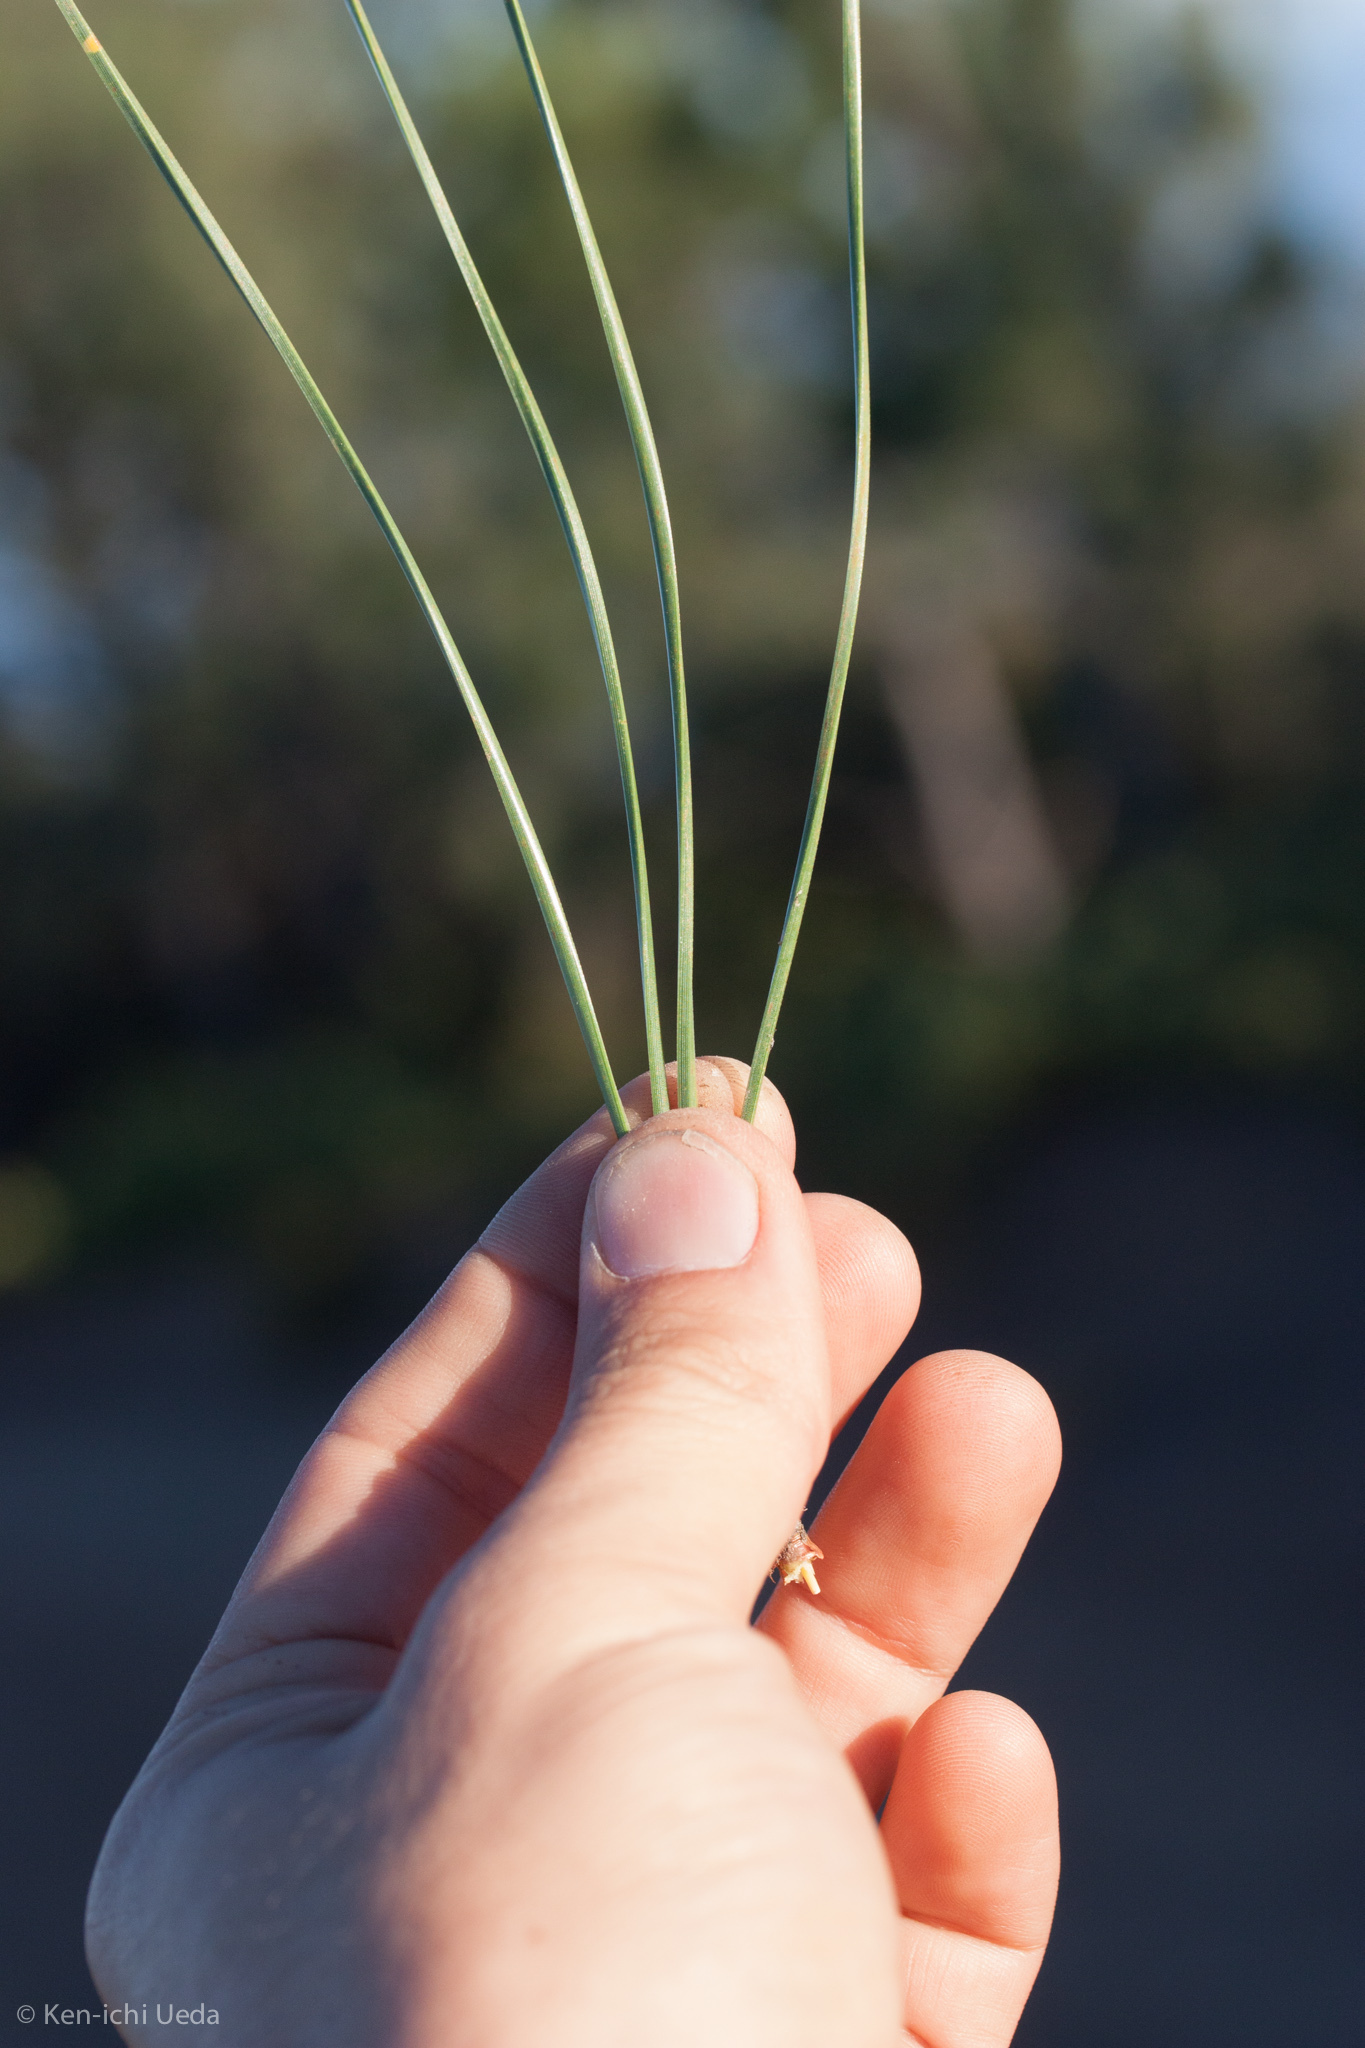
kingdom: Plantae
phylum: Tracheophyta
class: Pinopsida
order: Pinales
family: Pinaceae
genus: Pinus
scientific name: Pinus coulteri
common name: Coulter pine
